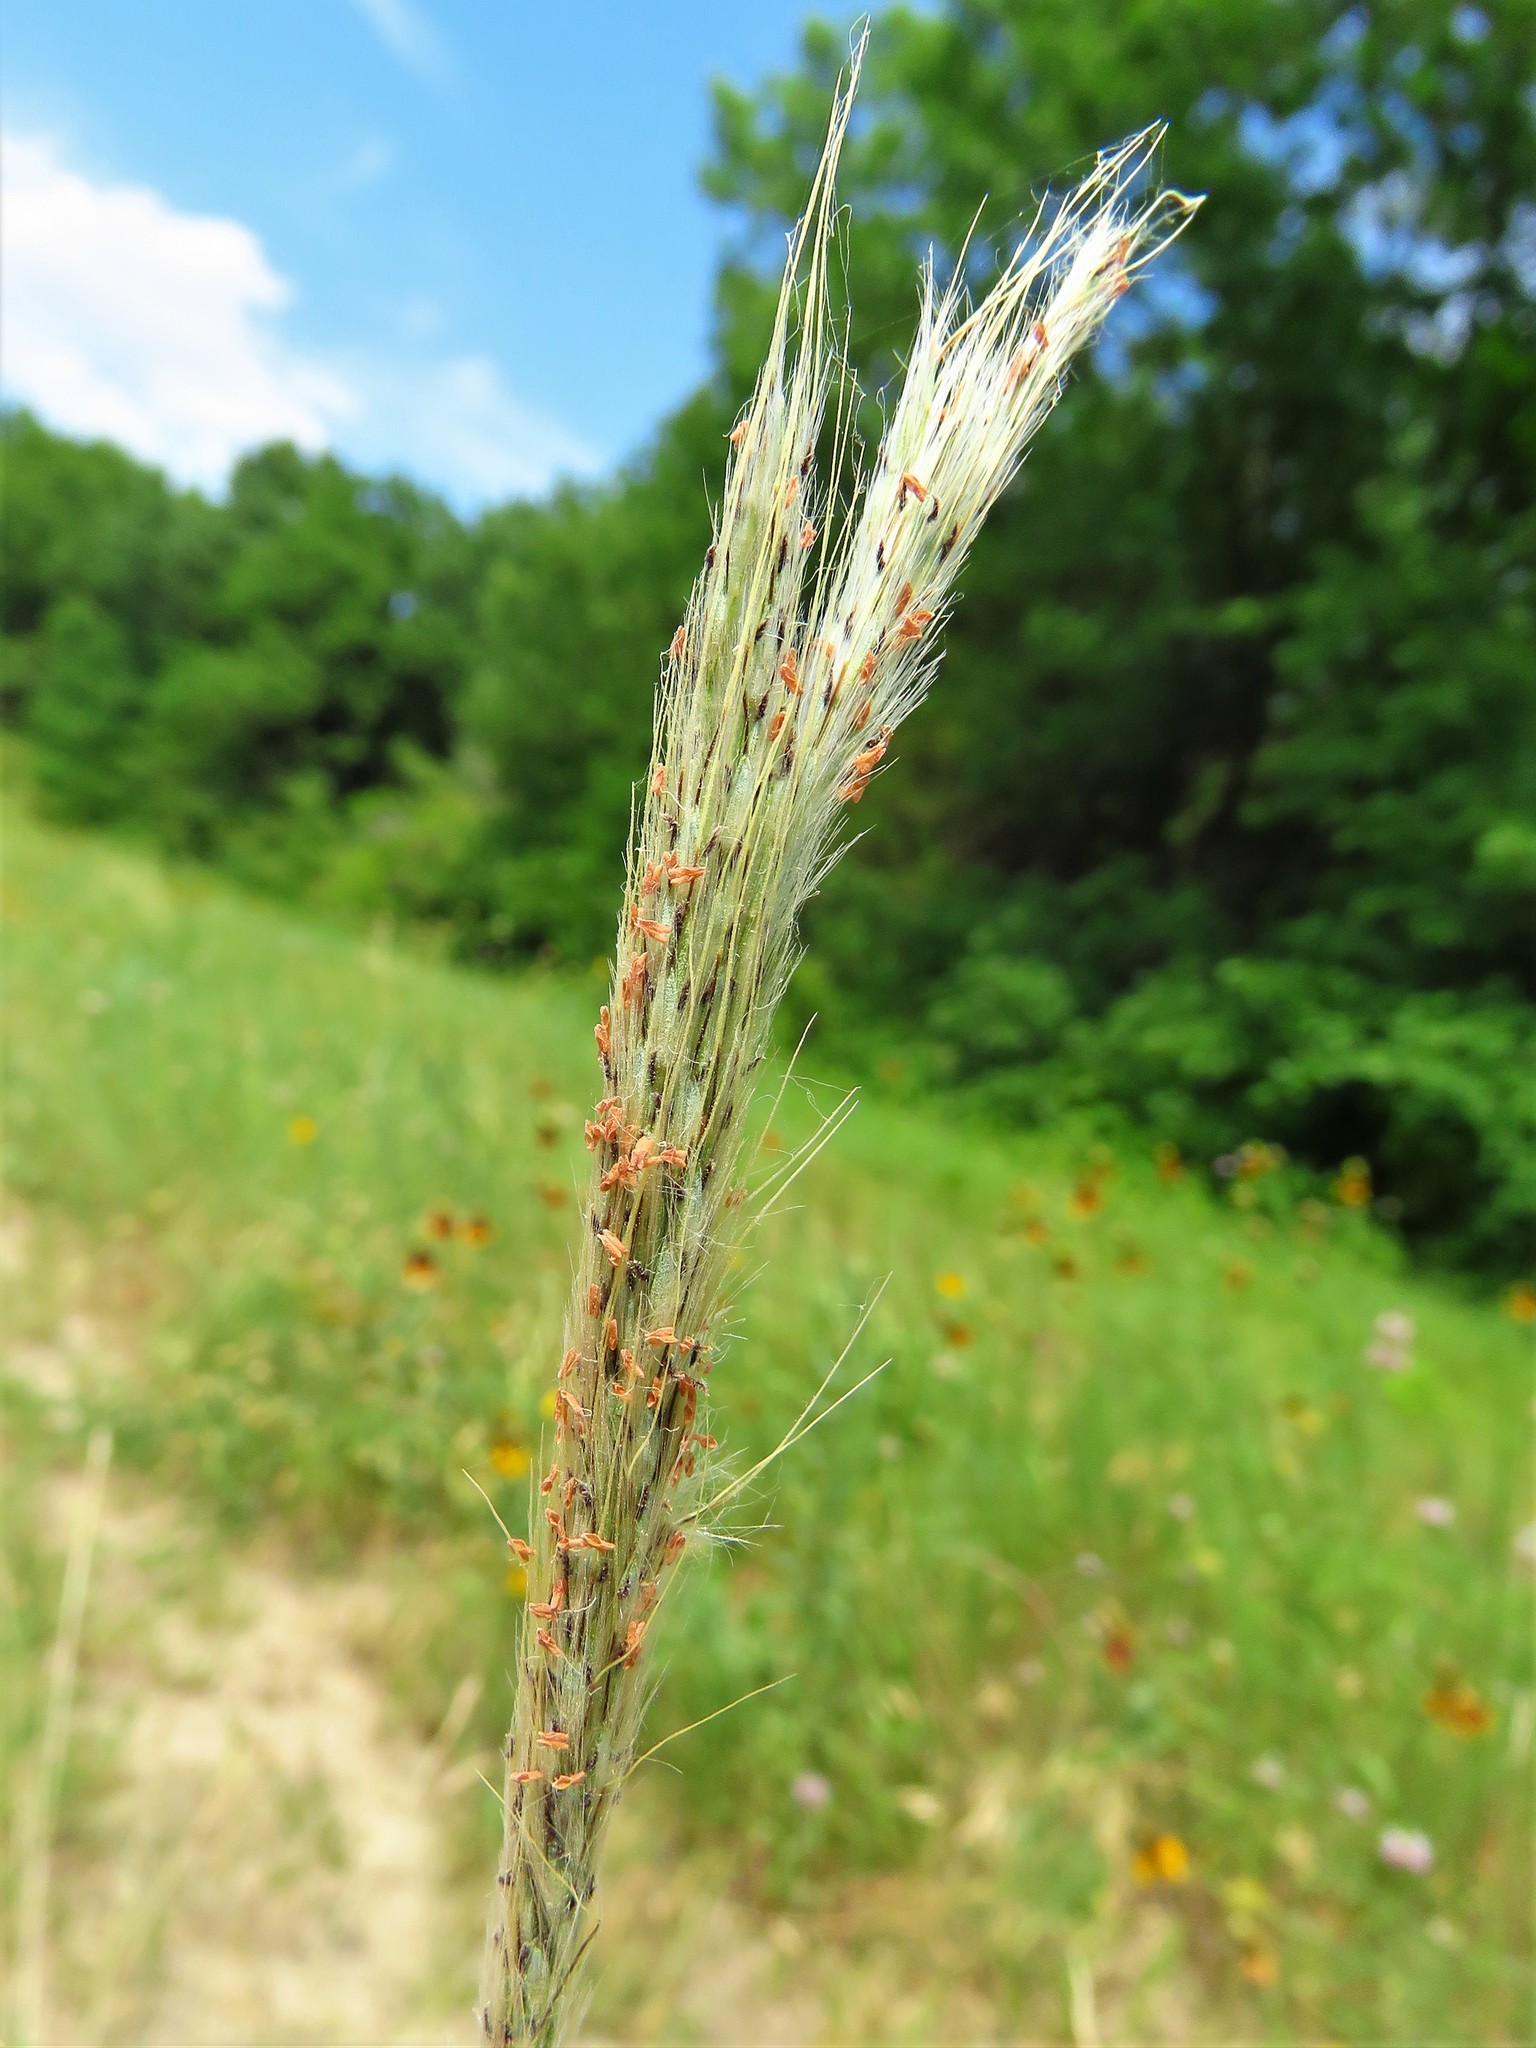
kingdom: Plantae
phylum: Tracheophyta
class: Liliopsida
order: Poales
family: Poaceae
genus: Bothriochloa
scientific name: Bothriochloa torreyana
